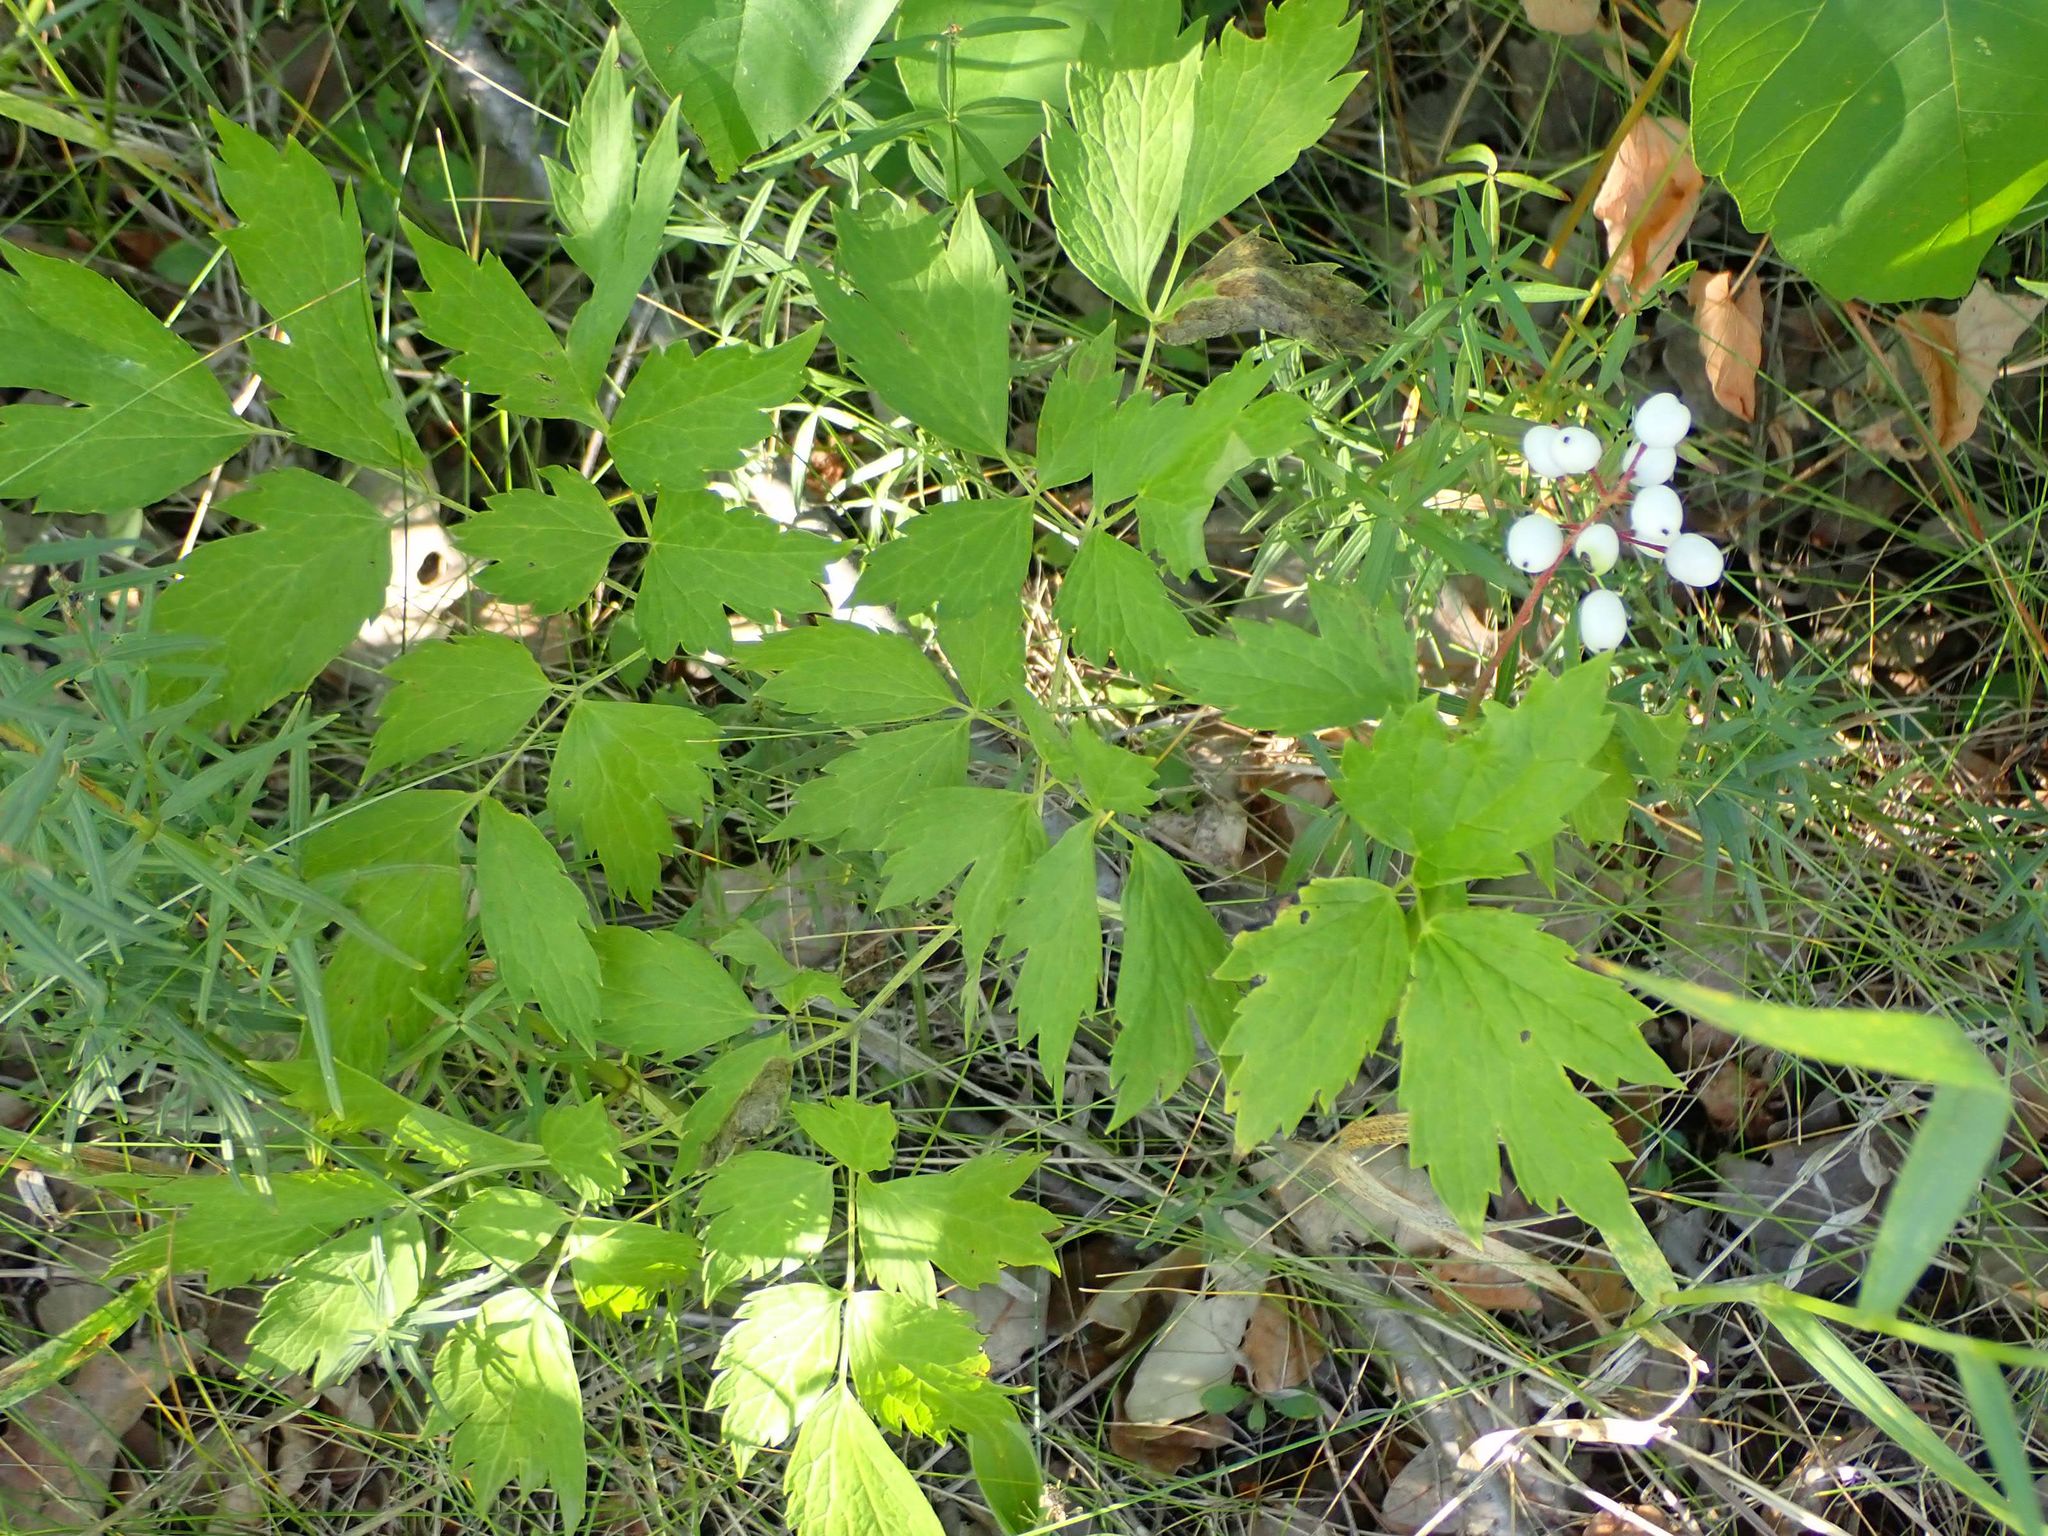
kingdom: Plantae
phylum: Tracheophyta
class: Magnoliopsida
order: Ranunculales
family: Ranunculaceae
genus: Actaea
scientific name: Actaea rubra
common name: Red baneberry
